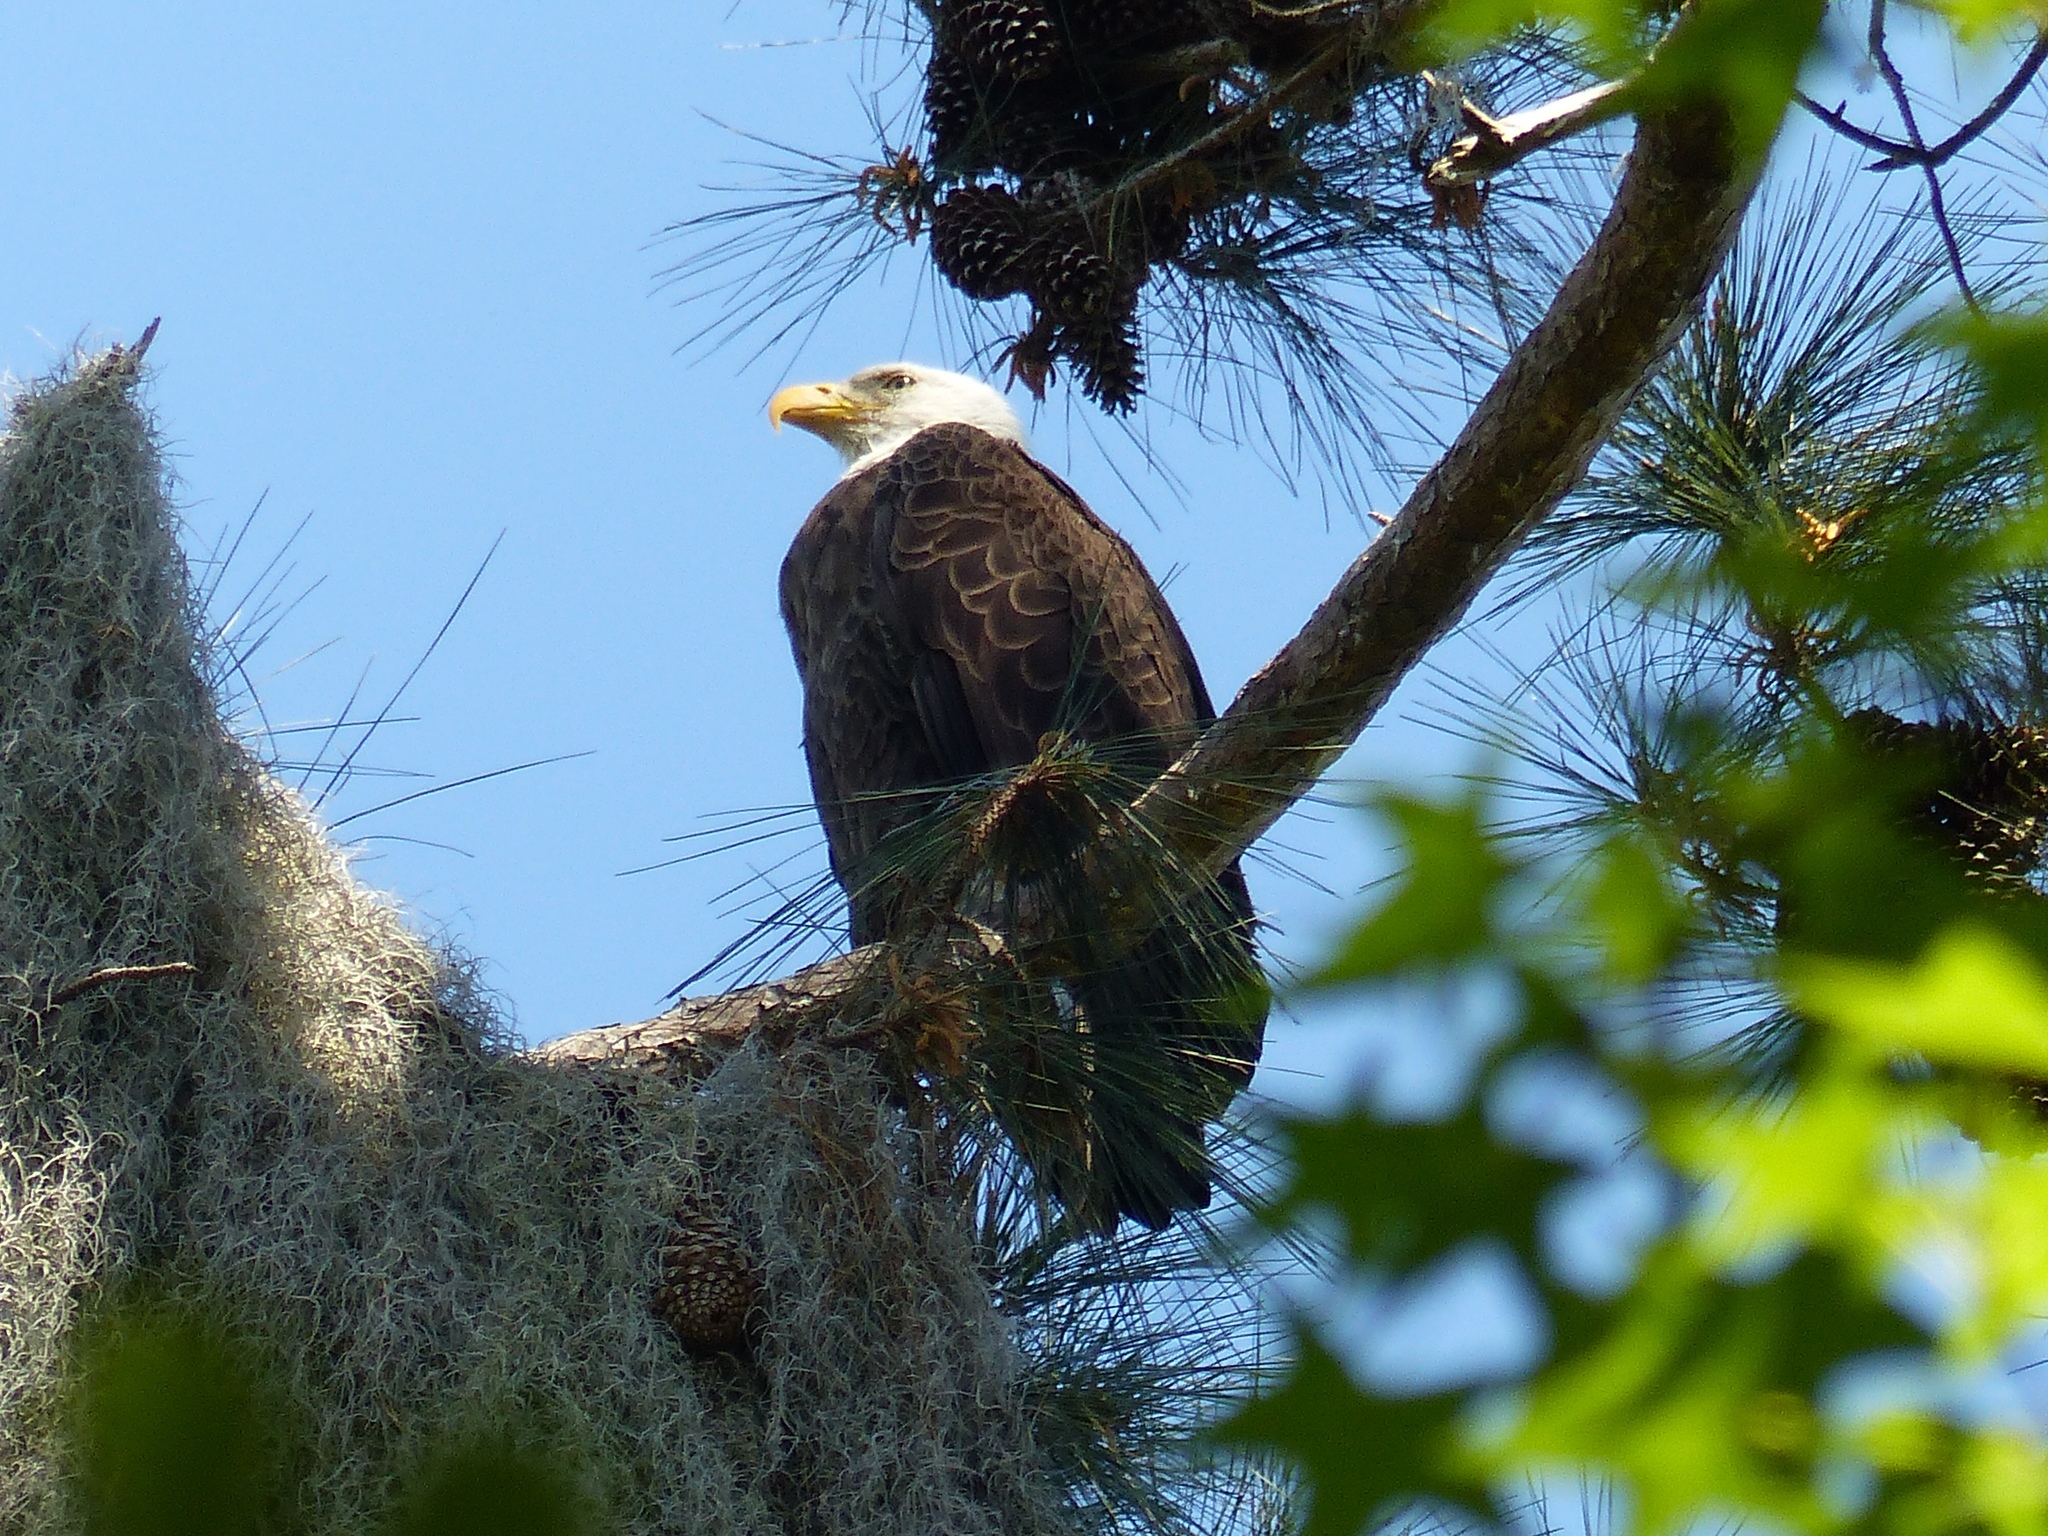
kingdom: Animalia
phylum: Chordata
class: Aves
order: Accipitriformes
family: Accipitridae
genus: Haliaeetus
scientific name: Haliaeetus leucocephalus
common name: Bald eagle
